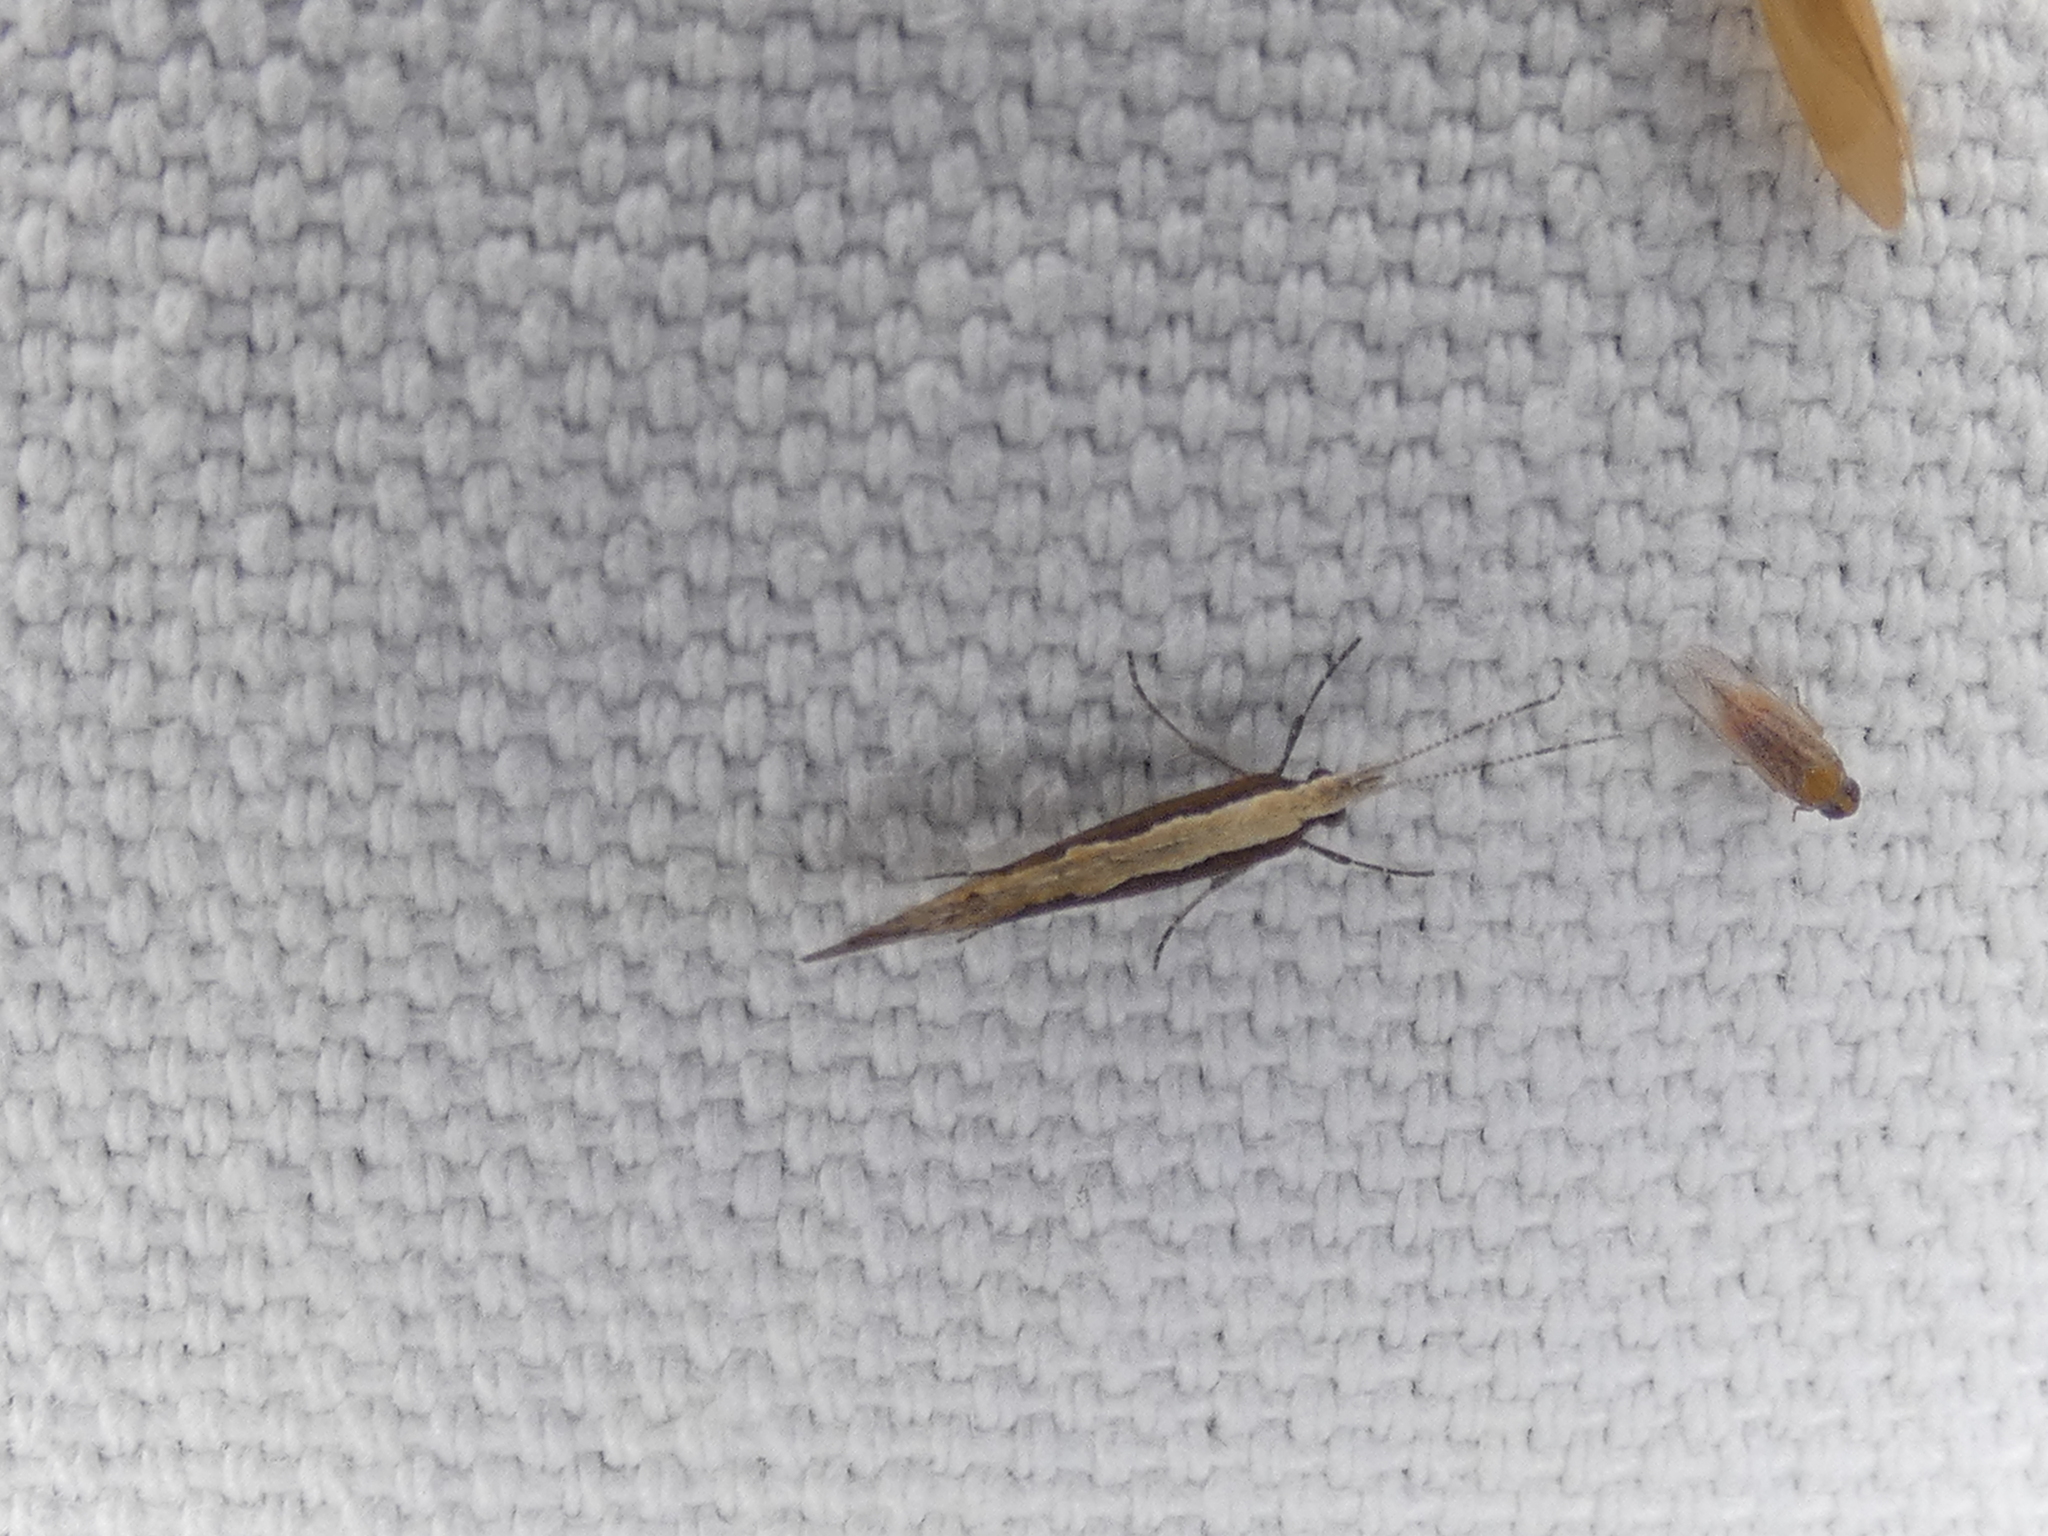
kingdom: Animalia
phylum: Arthropoda
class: Insecta
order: Lepidoptera
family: Plutellidae
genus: Plutella
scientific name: Plutella xylostella
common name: Diamond-back moth
